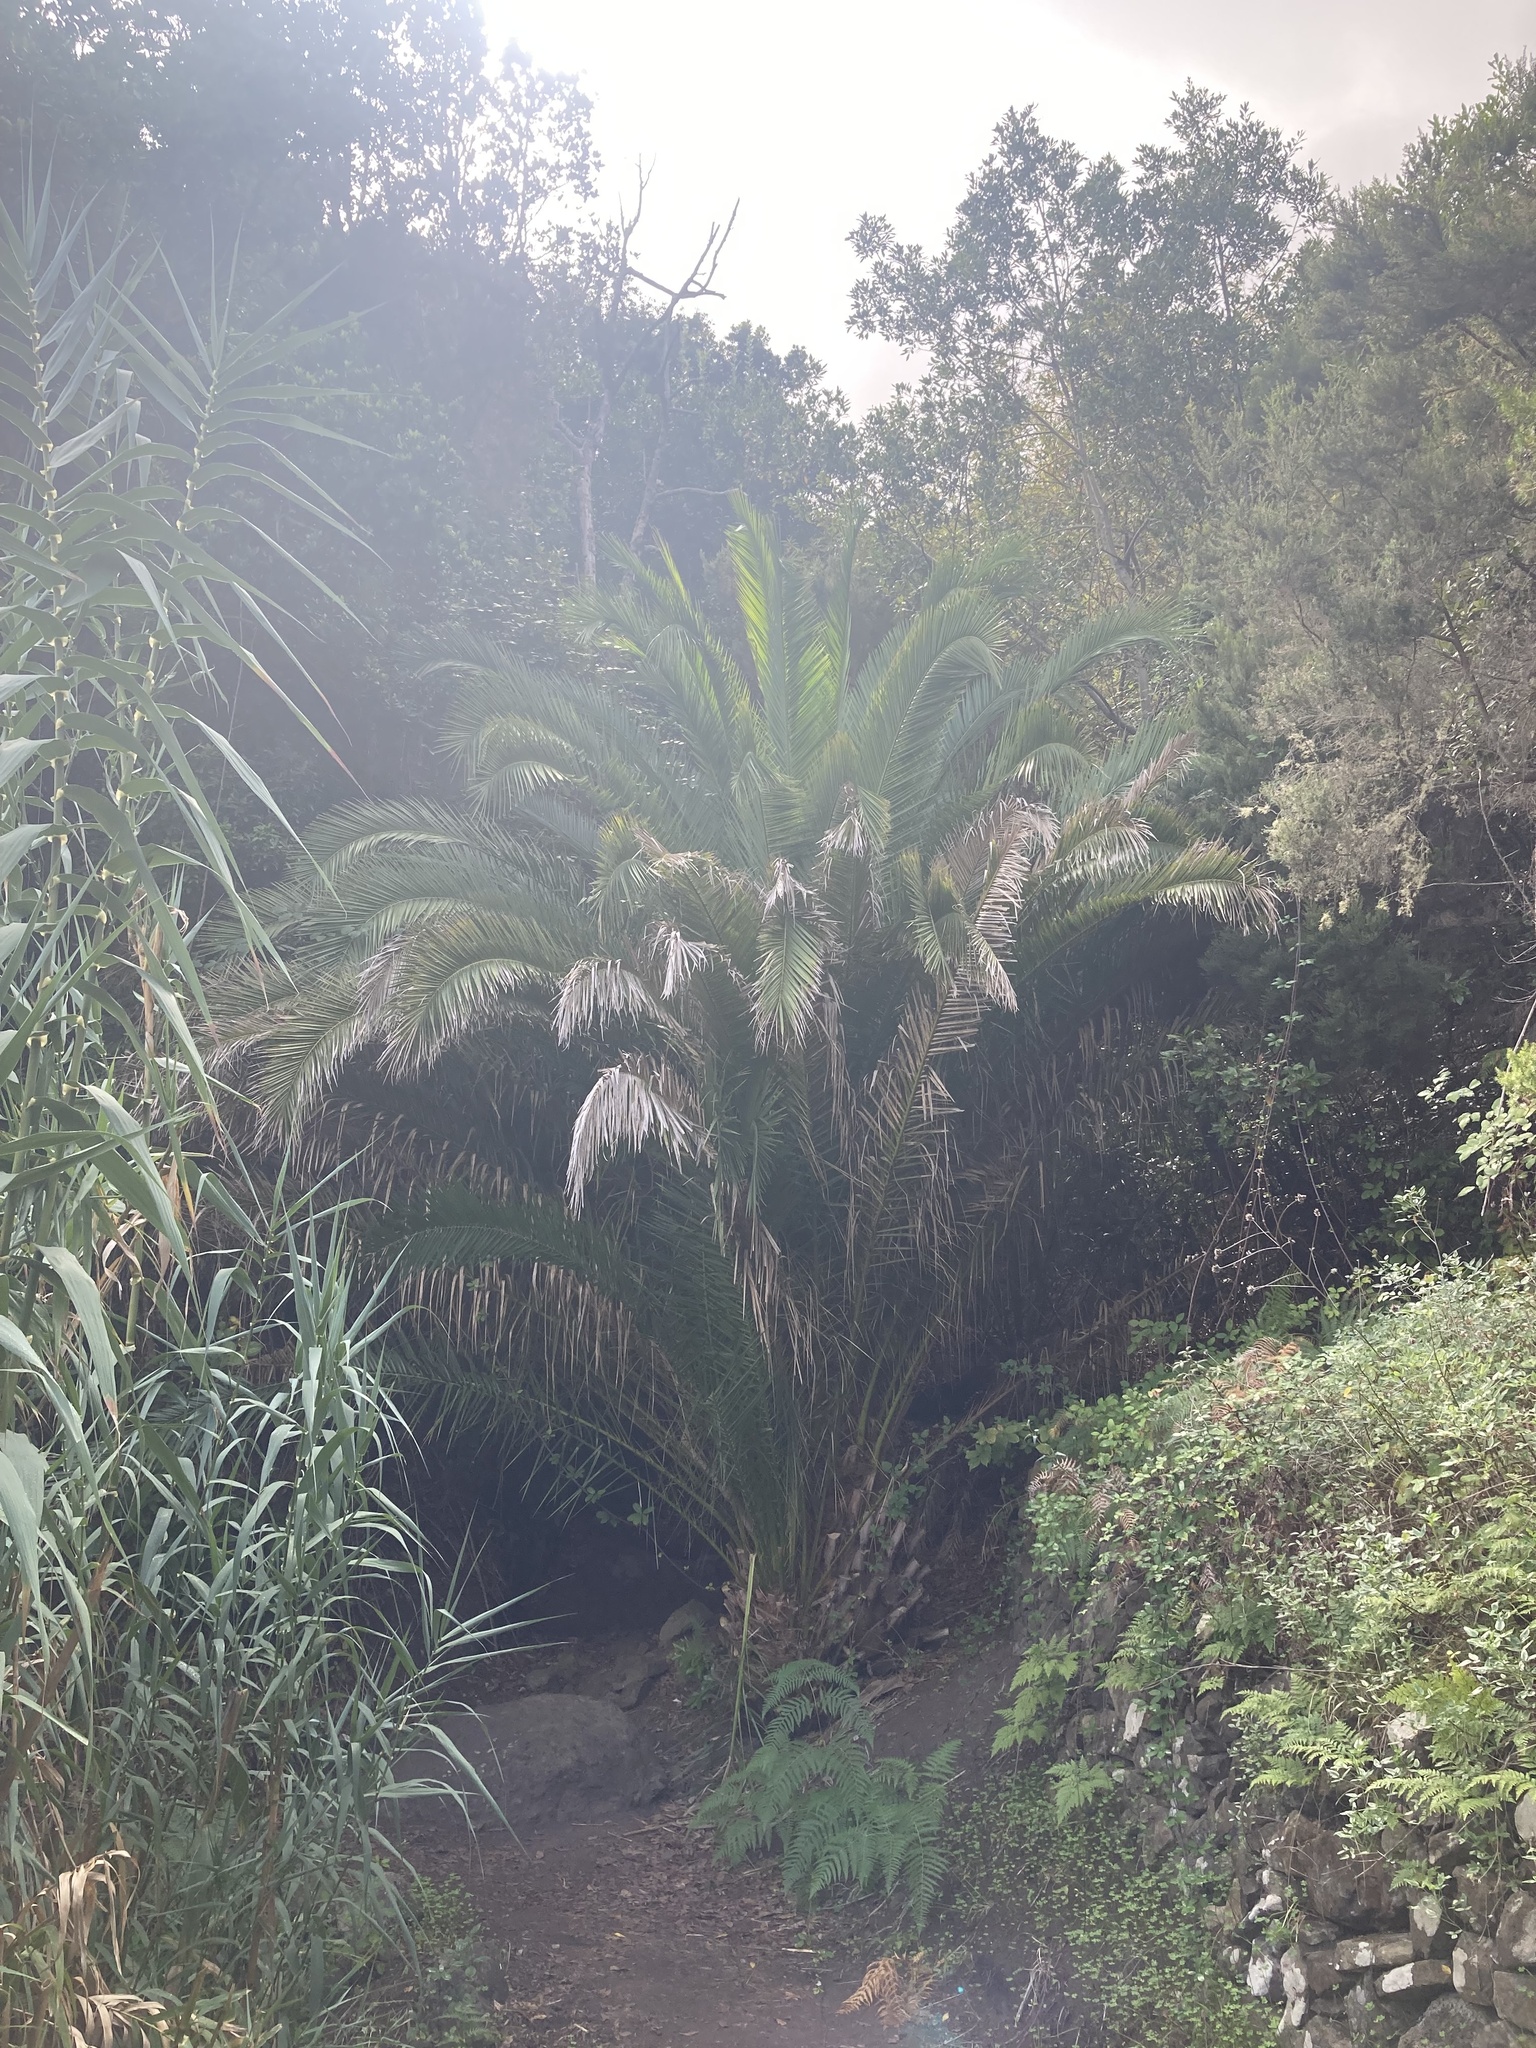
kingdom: Plantae
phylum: Tracheophyta
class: Liliopsida
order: Arecales
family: Arecaceae
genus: Phoenix
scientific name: Phoenix canariensis
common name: Canary island date palm
